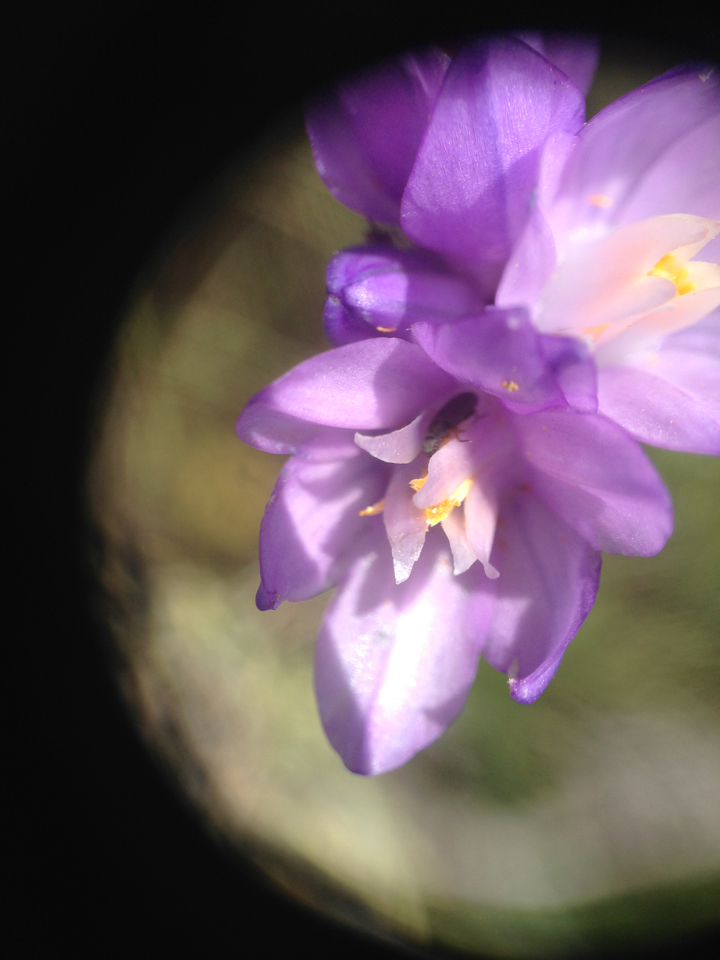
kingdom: Plantae
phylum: Tracheophyta
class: Liliopsida
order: Asparagales
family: Asparagaceae
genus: Dipterostemon
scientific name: Dipterostemon capitatus
